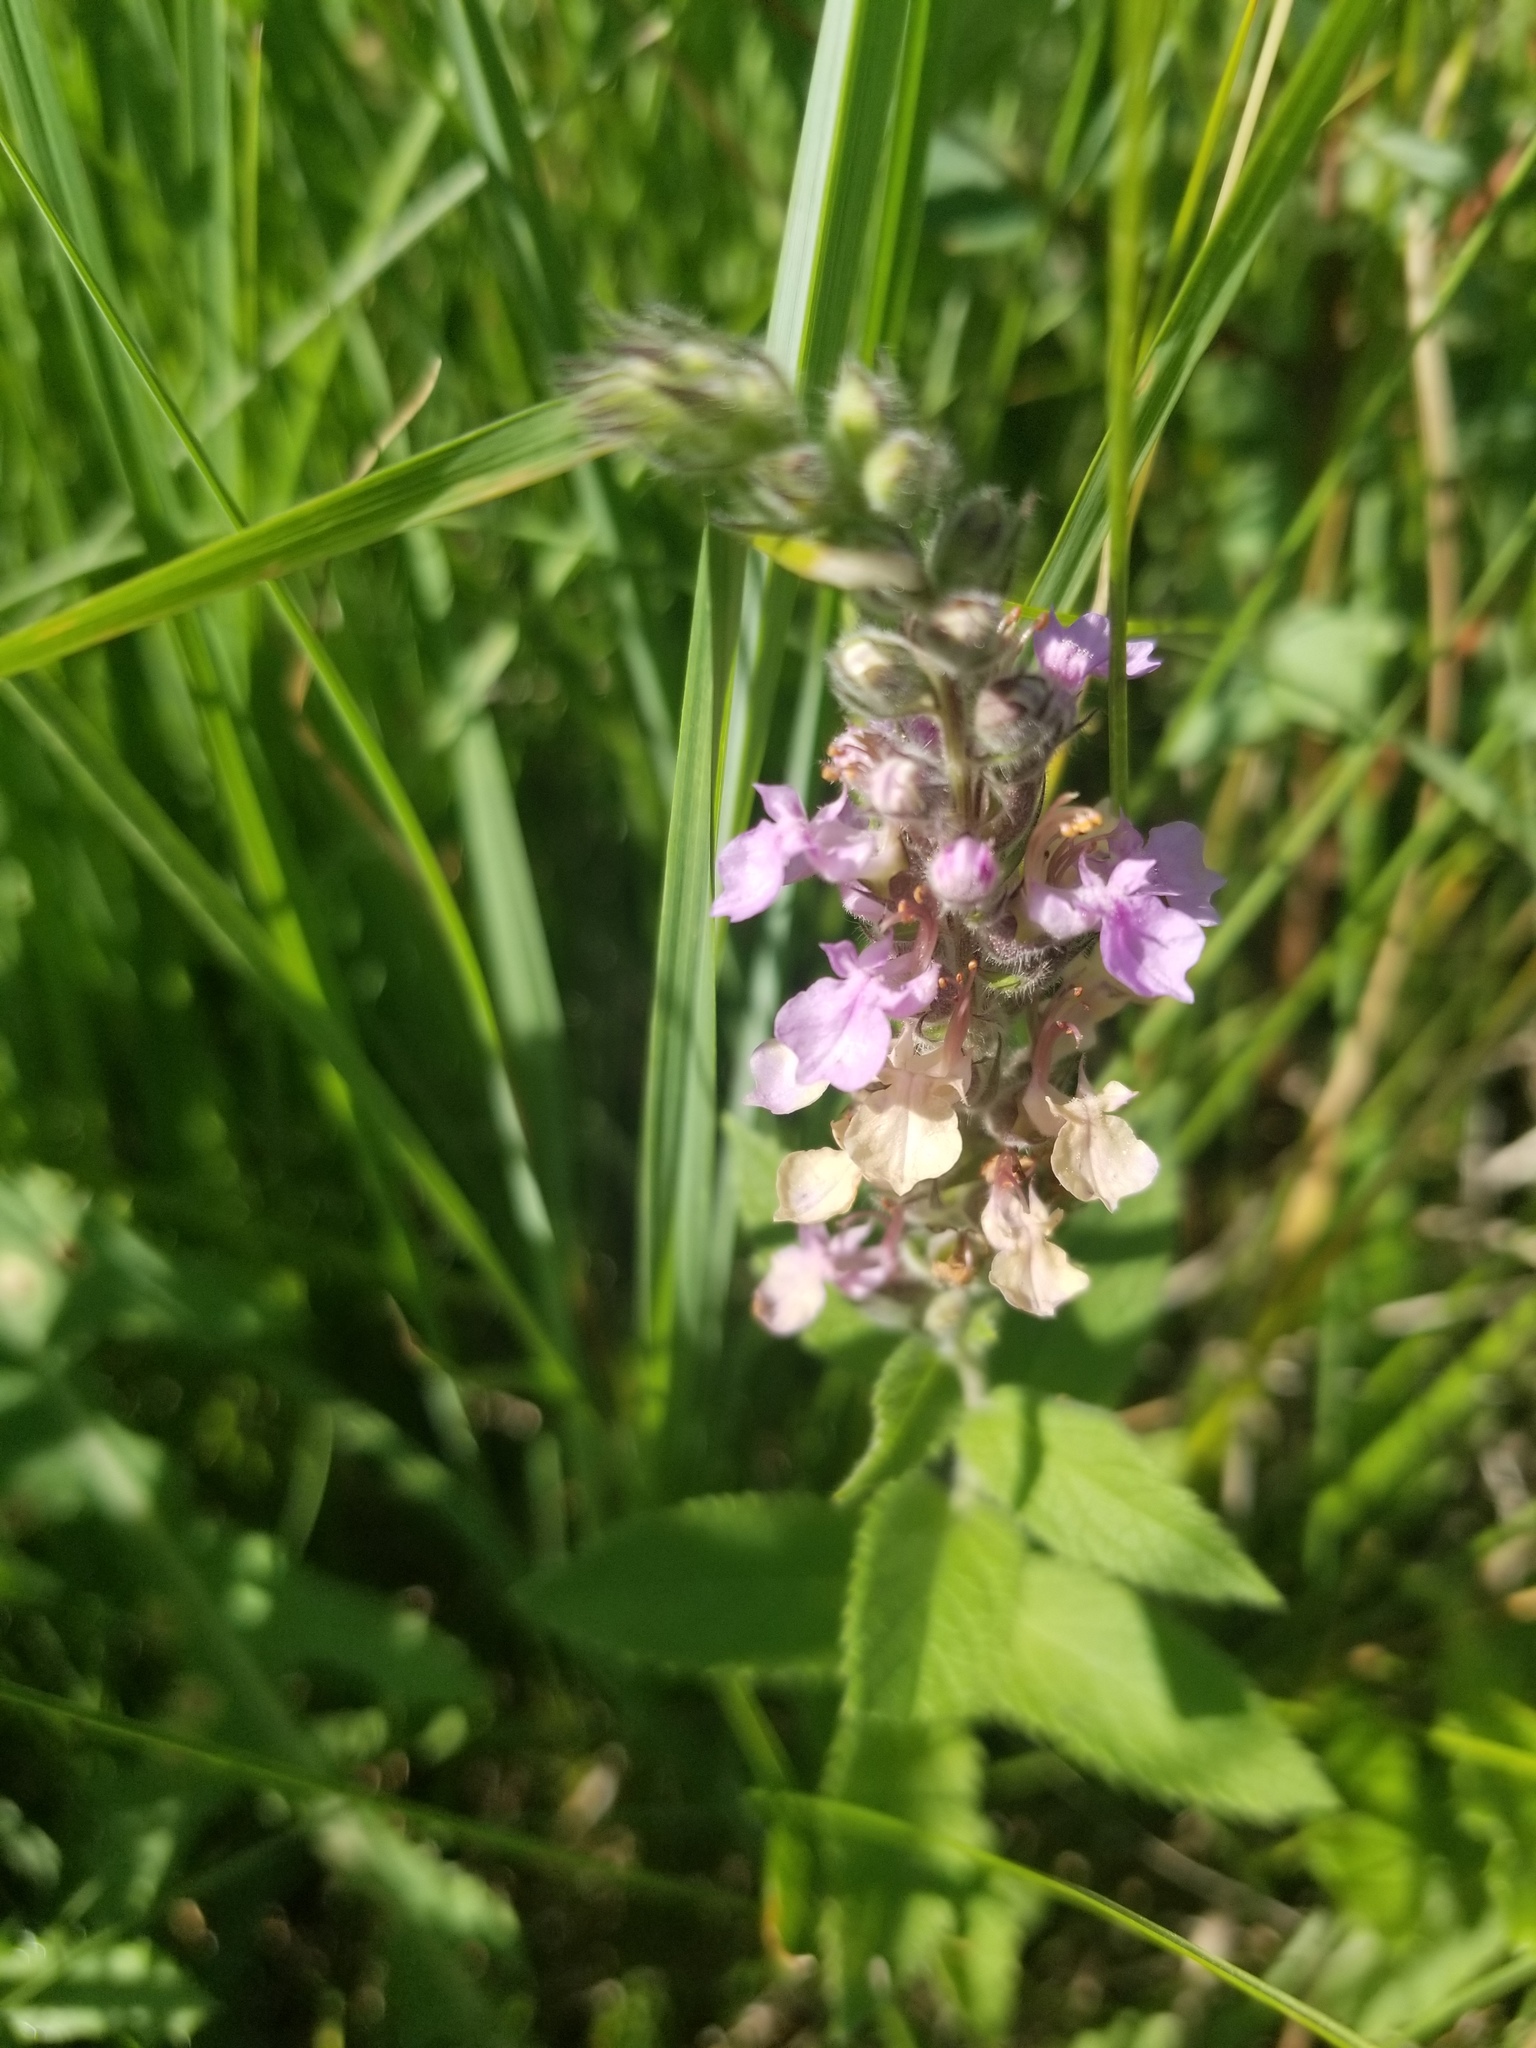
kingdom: Plantae
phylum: Tracheophyta
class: Magnoliopsida
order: Lamiales
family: Lamiaceae
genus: Teucrium
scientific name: Teucrium canadense
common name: American germander
